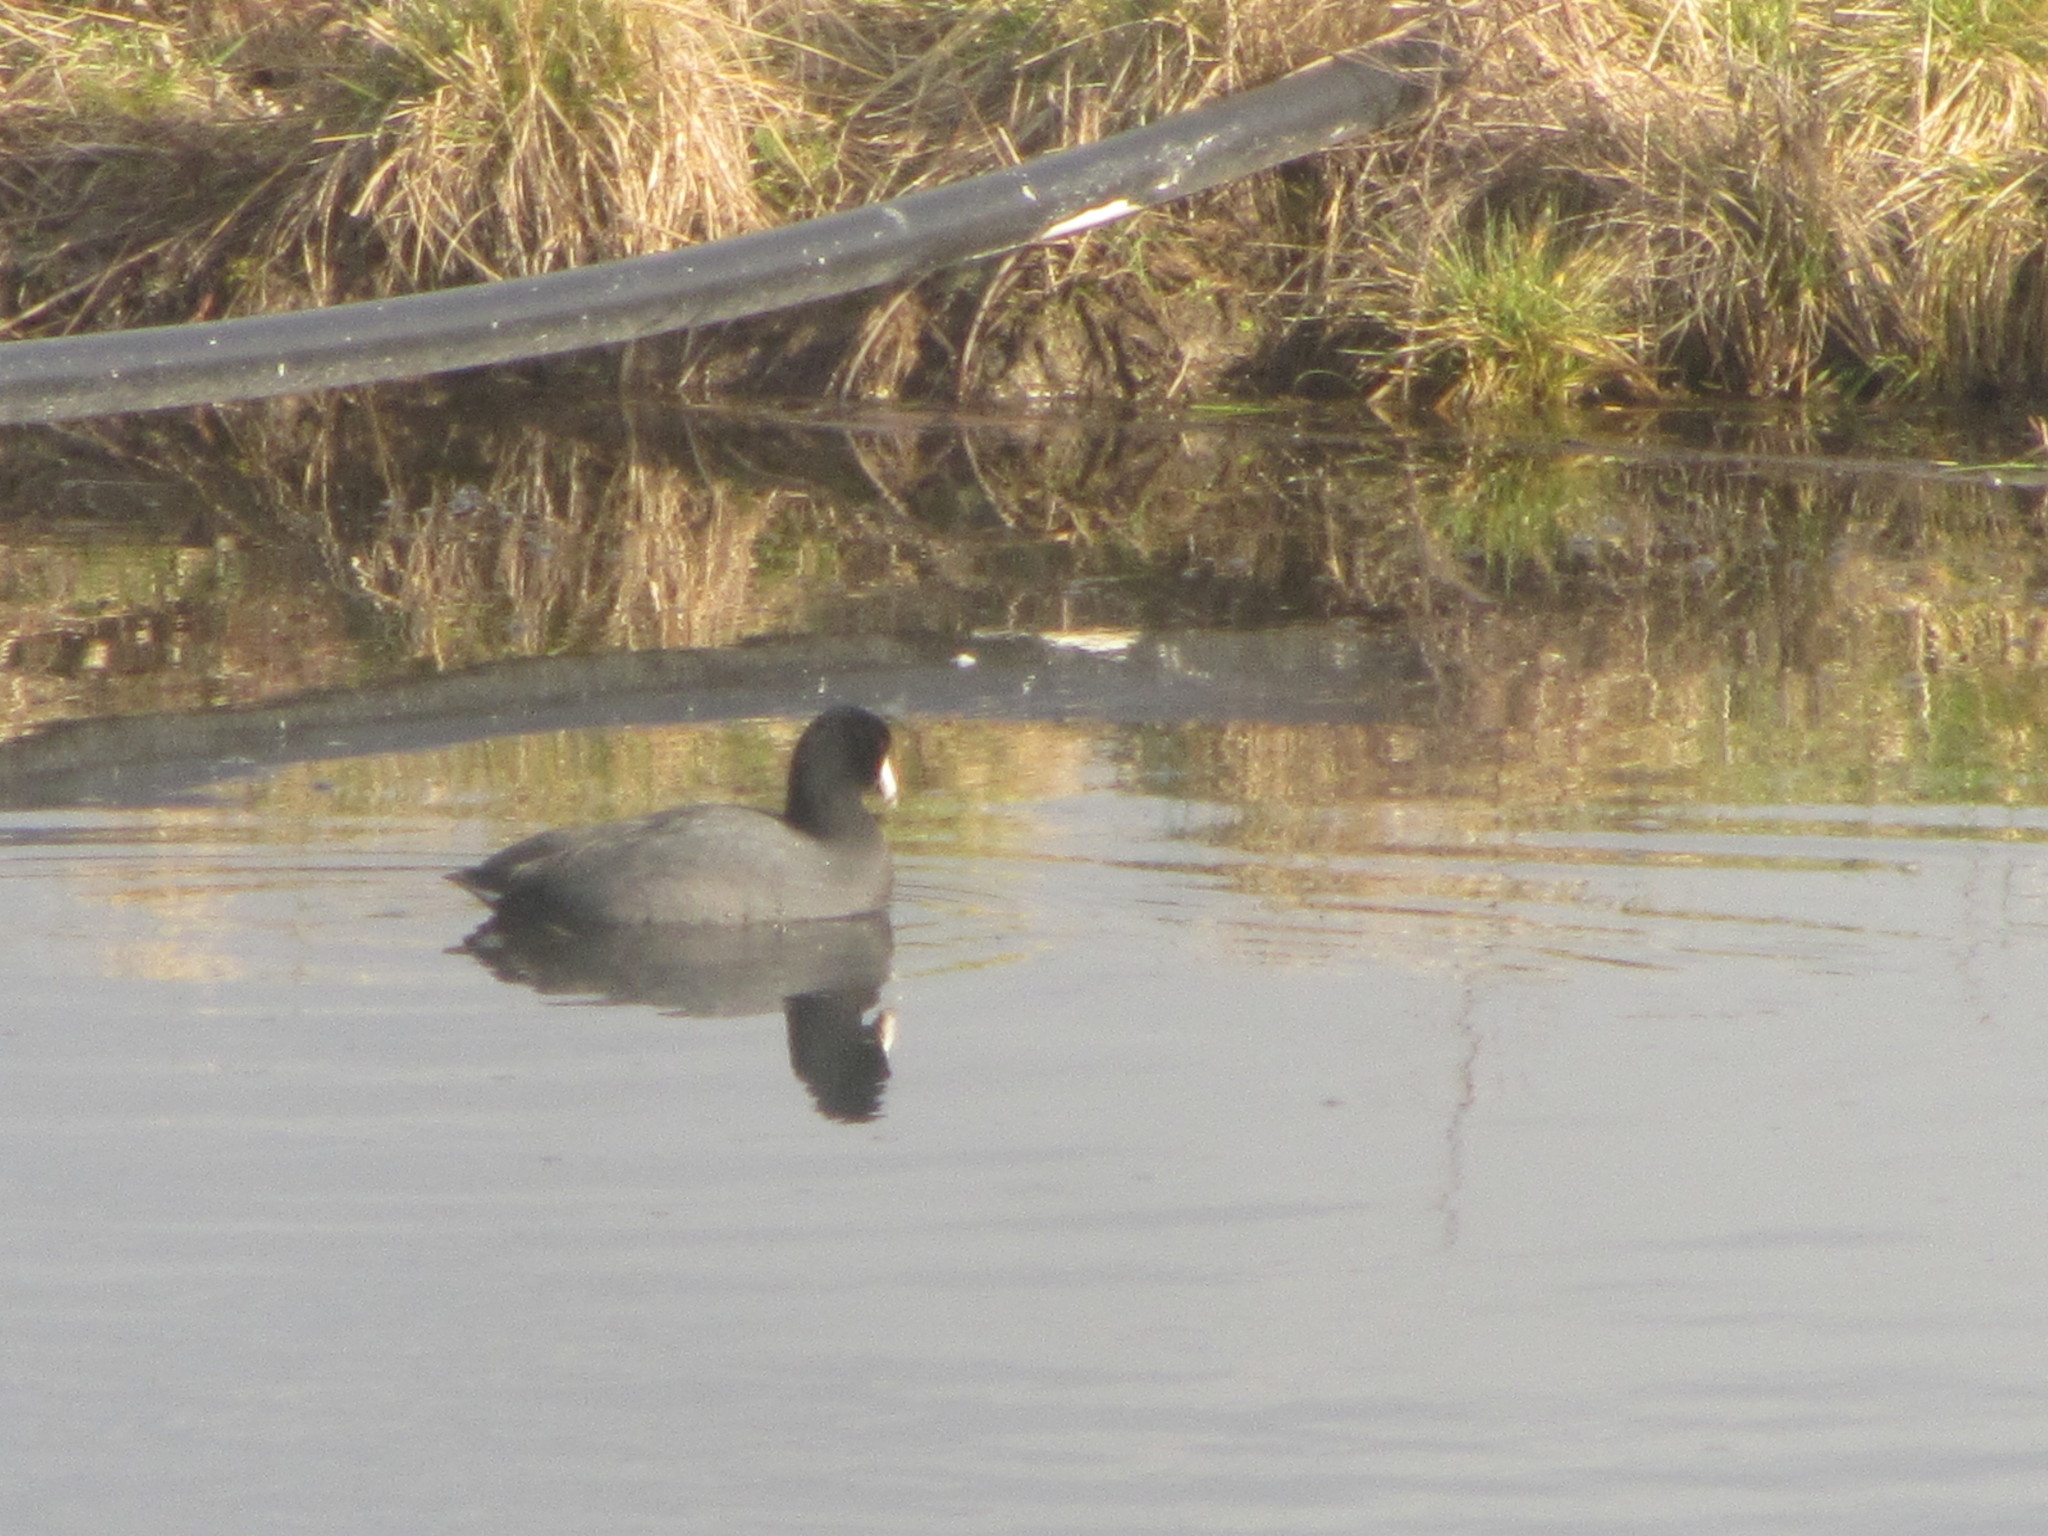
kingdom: Animalia
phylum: Chordata
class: Aves
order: Gruiformes
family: Rallidae
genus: Fulica
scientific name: Fulica americana
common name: American coot
